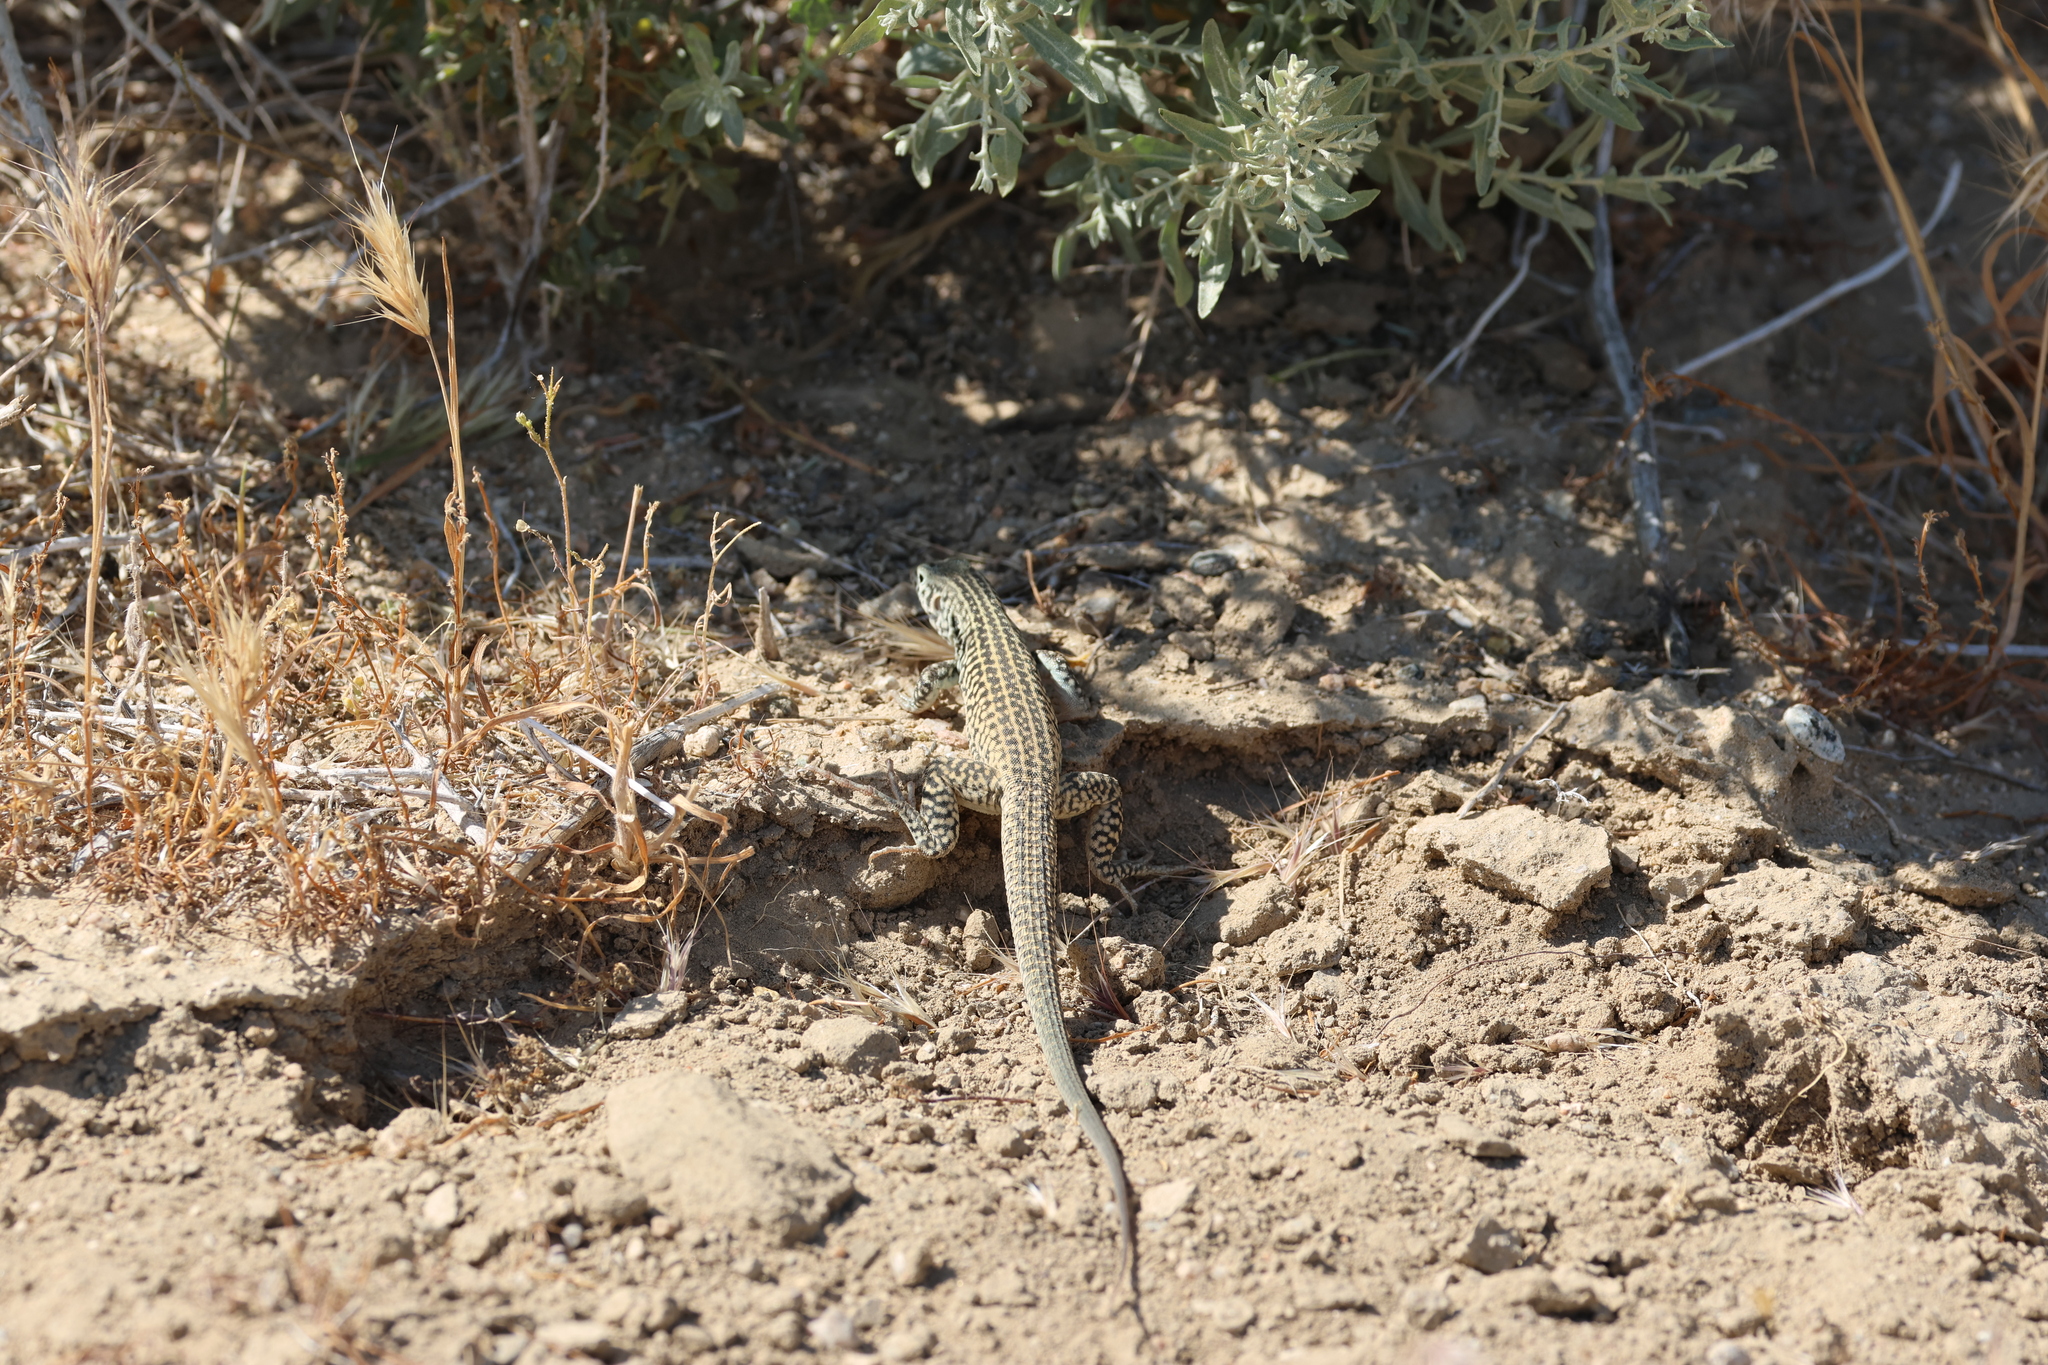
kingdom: Animalia
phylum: Chordata
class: Squamata
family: Teiidae
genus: Aspidoscelis
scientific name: Aspidoscelis tigris
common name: Tiger whiptail
